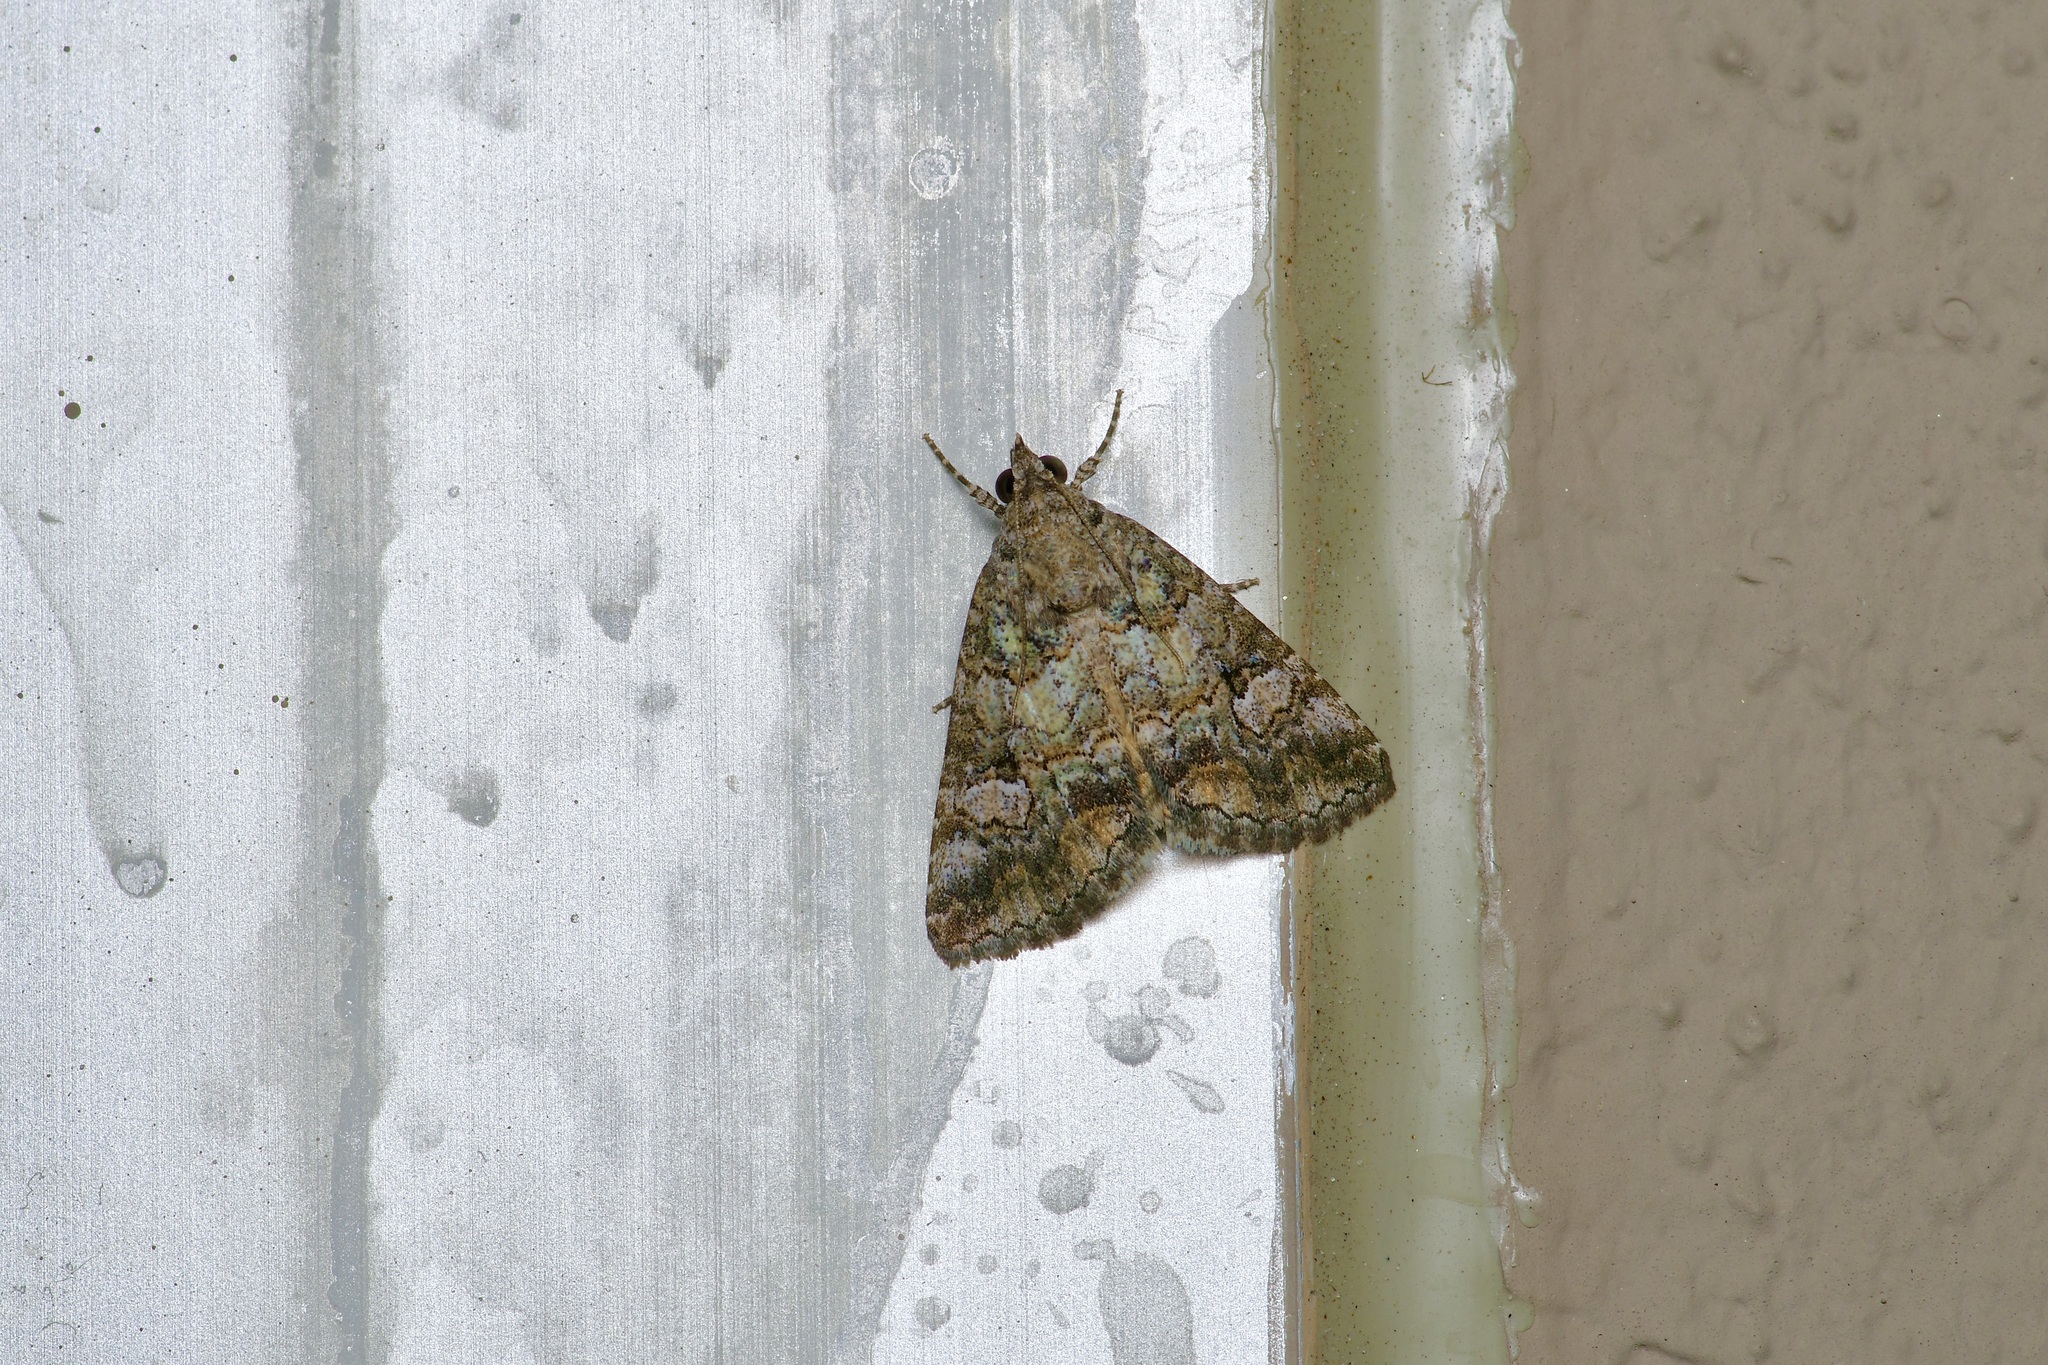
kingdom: Animalia
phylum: Arthropoda
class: Insecta
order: Lepidoptera
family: Erebidae
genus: Eubolina
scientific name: Eubolina impartialis
